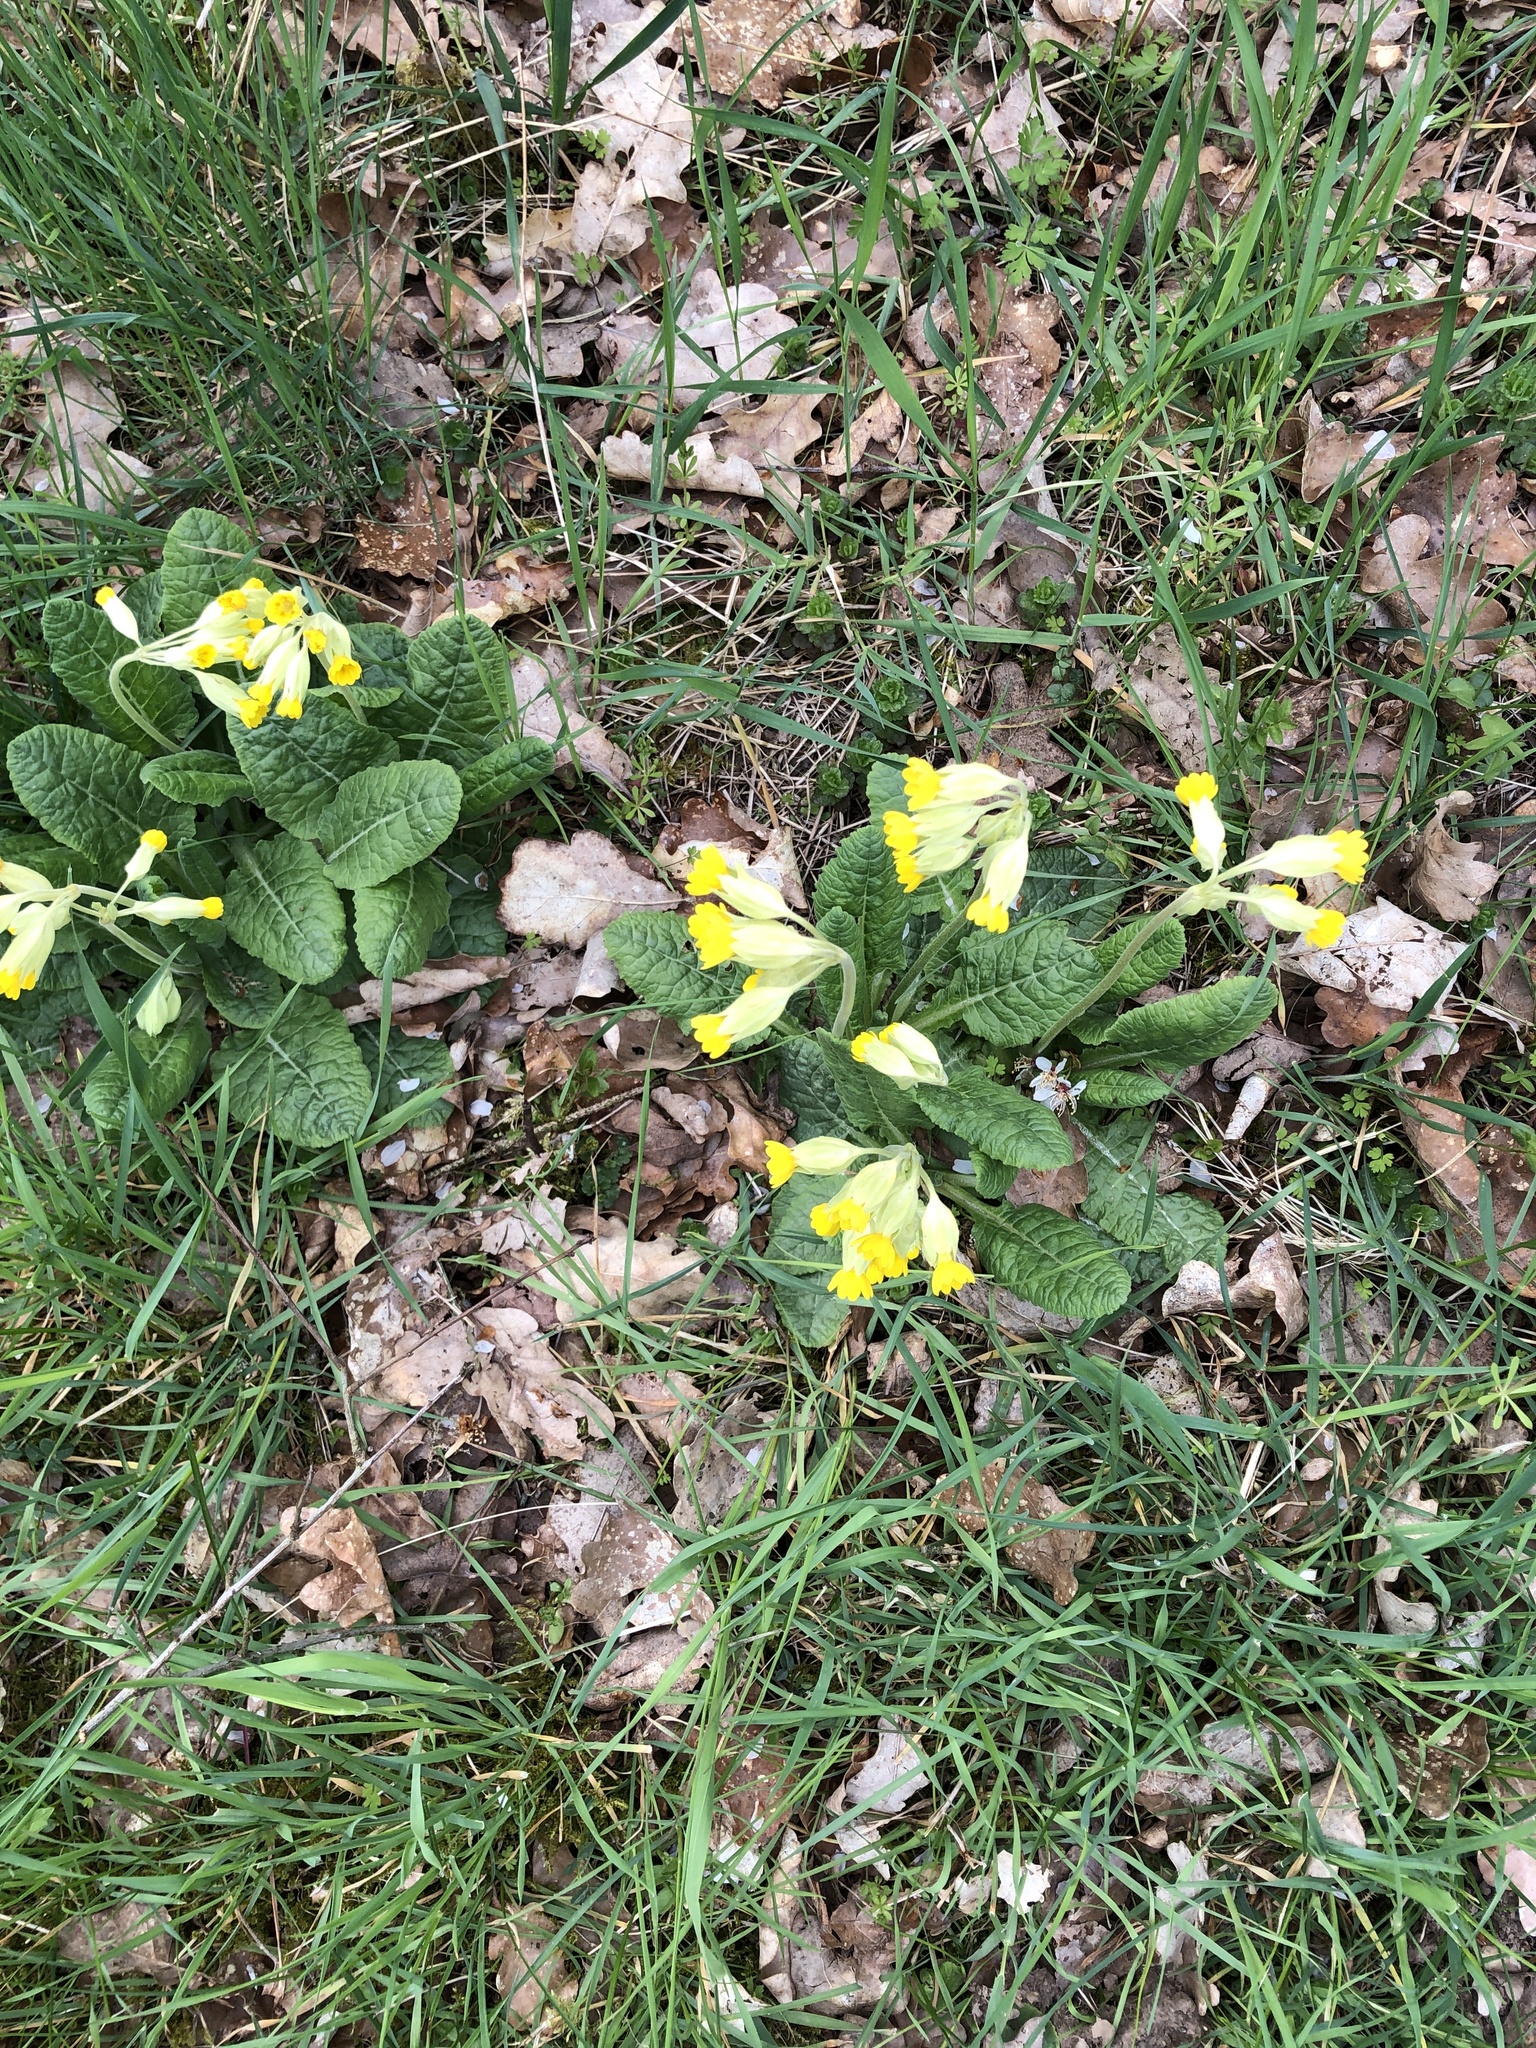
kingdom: Plantae
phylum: Tracheophyta
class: Magnoliopsida
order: Ericales
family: Primulaceae
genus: Primula
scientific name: Primula veris
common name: Cowslip
